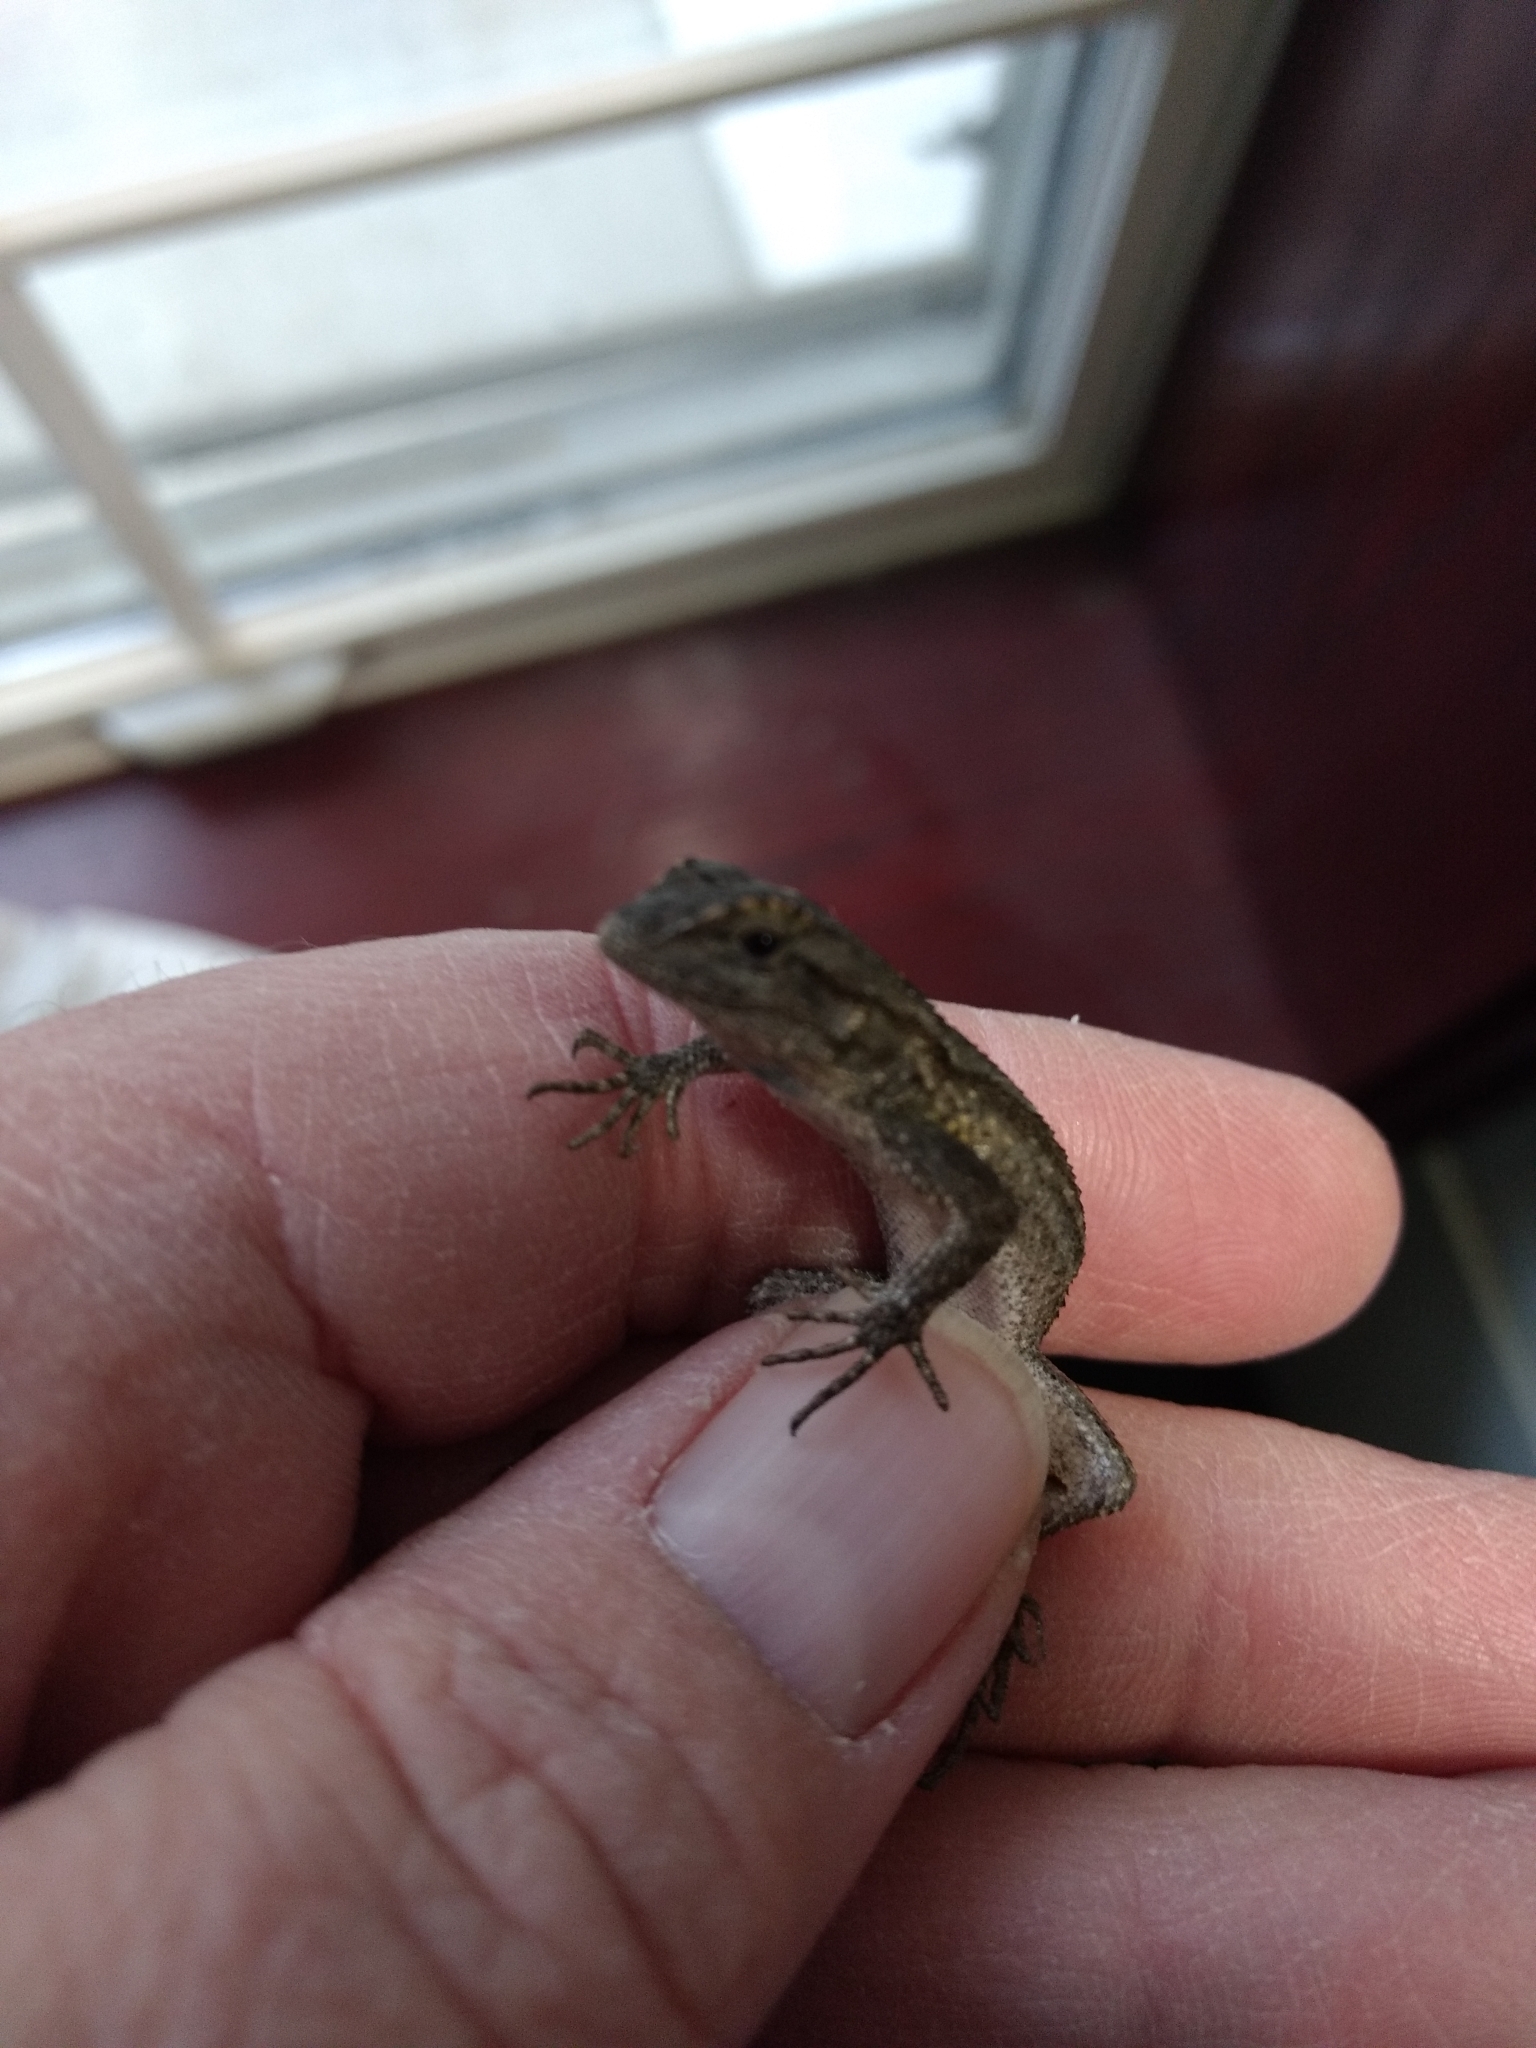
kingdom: Animalia
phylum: Chordata
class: Squamata
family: Phrynosomatidae
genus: Sceloporus
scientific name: Sceloporus occidentalis
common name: Western fence lizard
